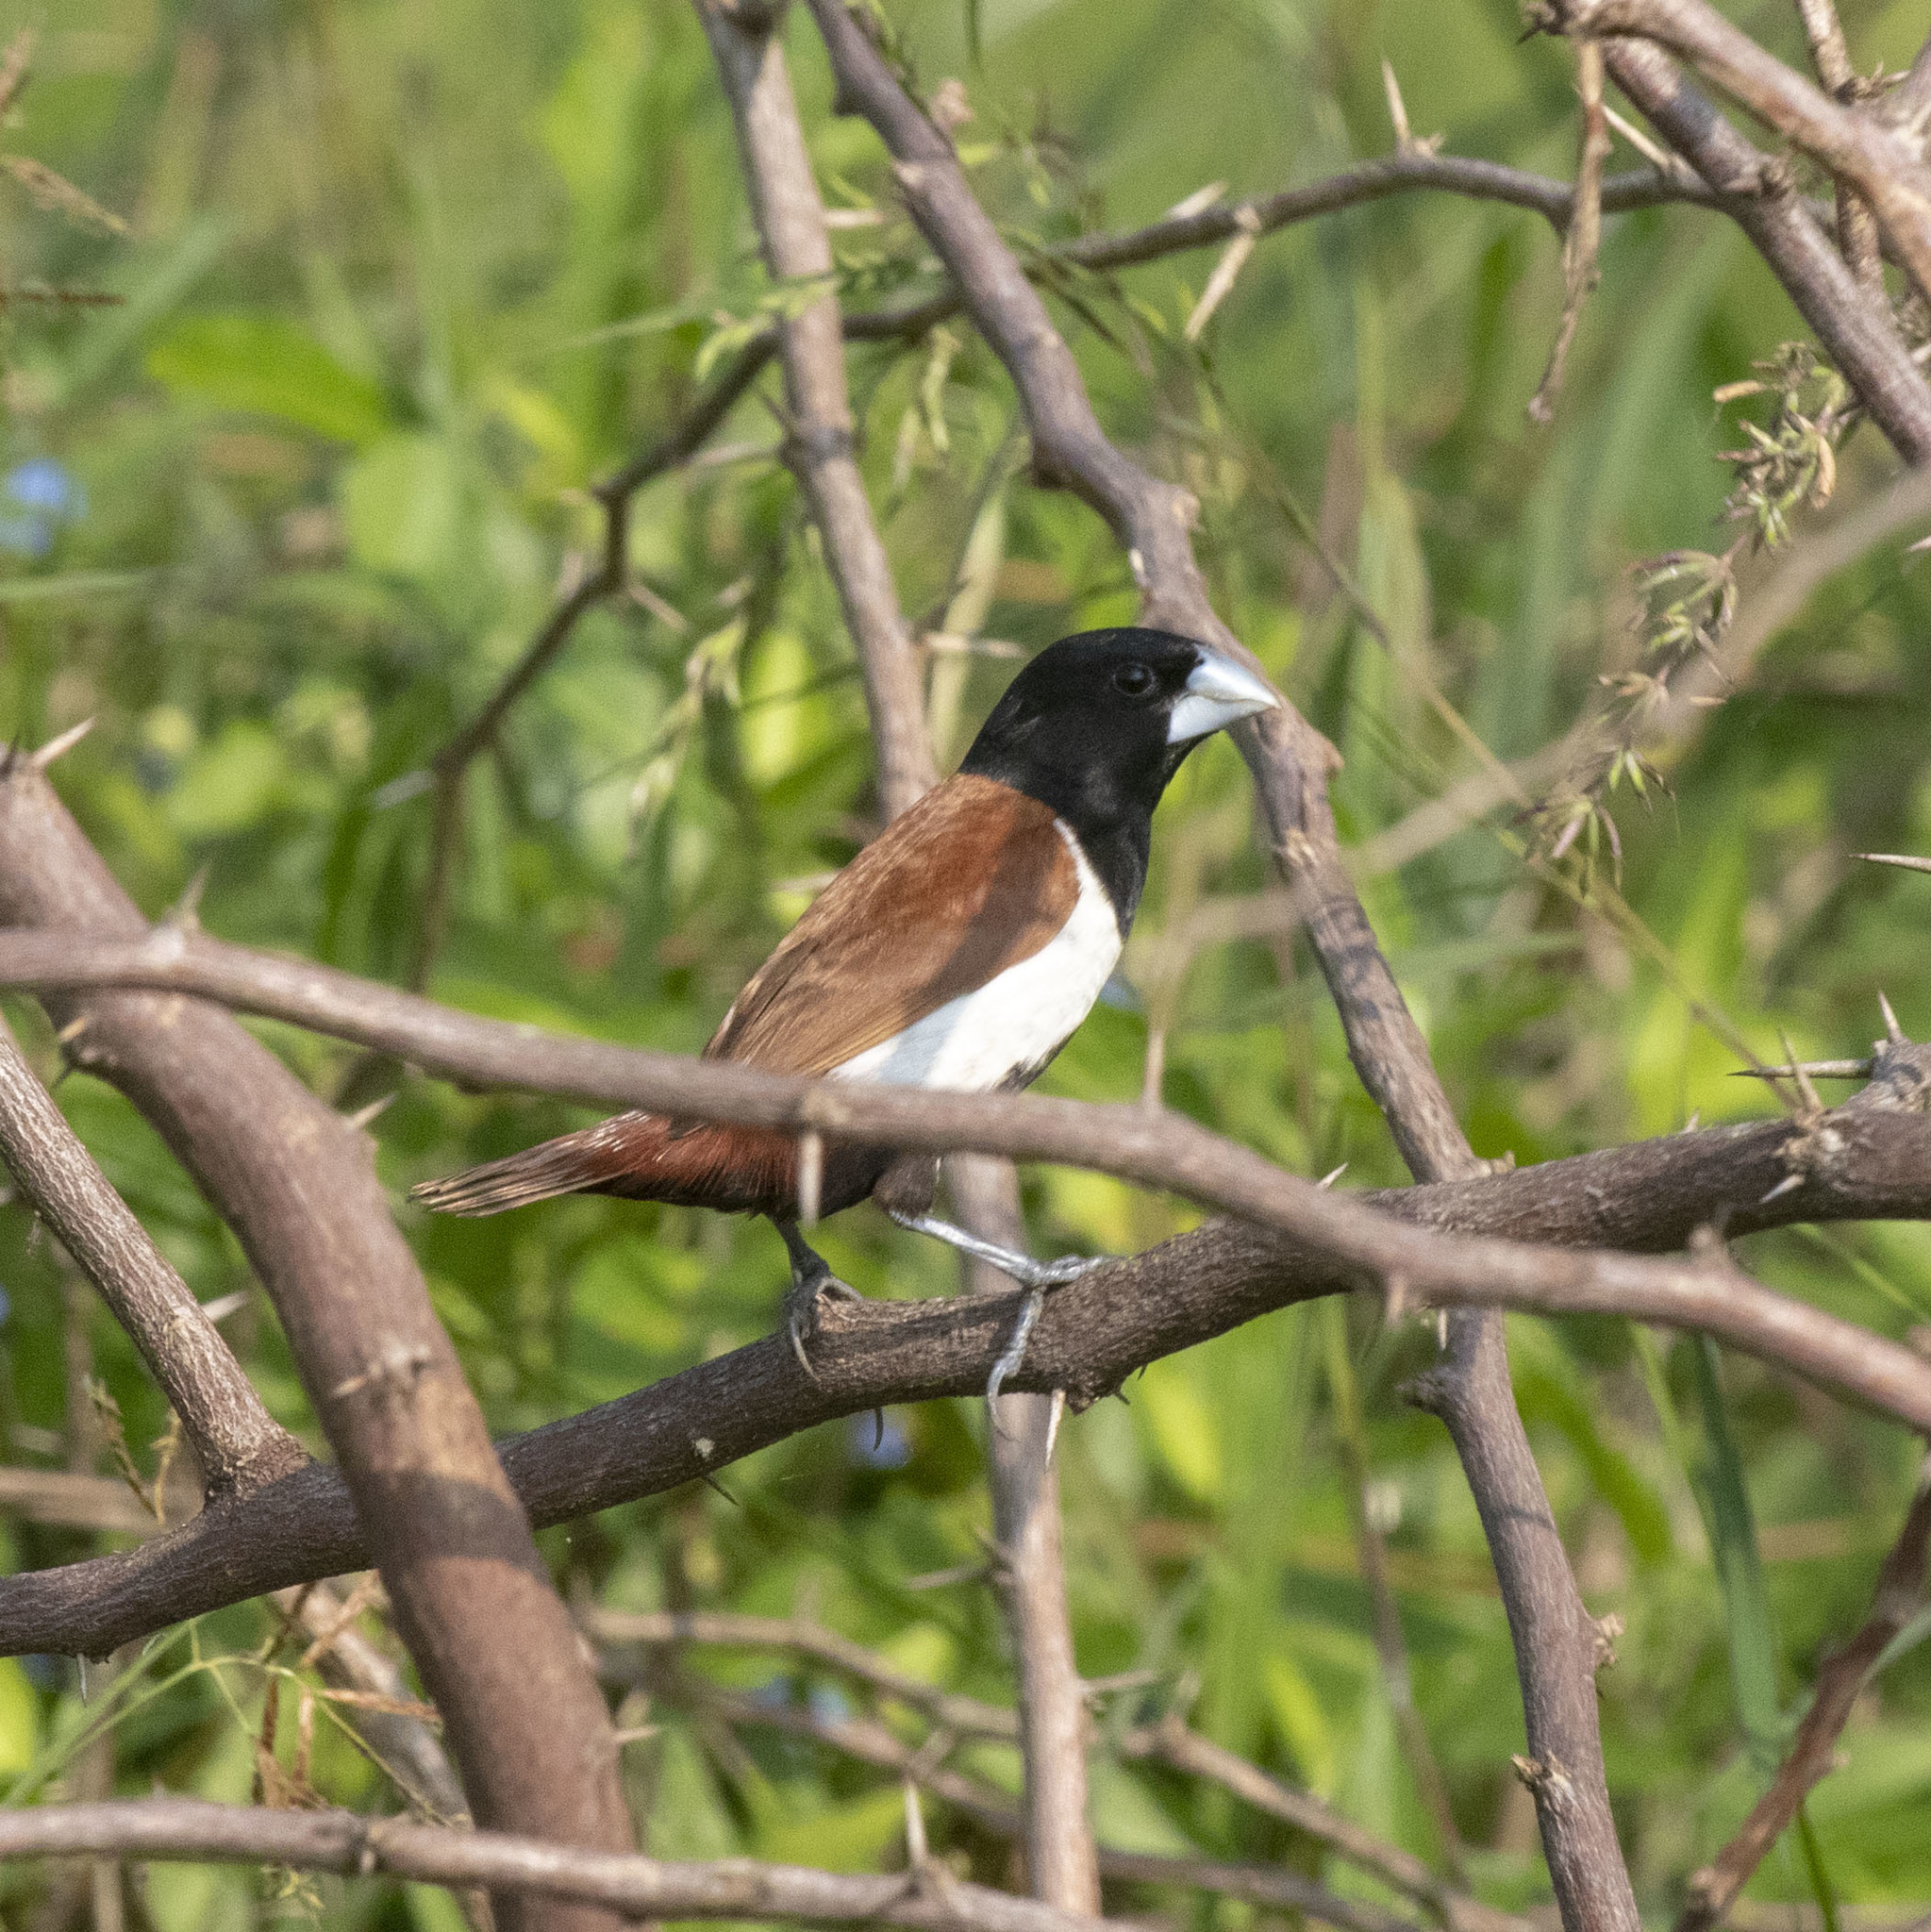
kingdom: Animalia
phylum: Chordata
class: Aves
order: Passeriformes
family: Estrildidae
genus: Lonchura
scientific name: Lonchura malacca
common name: Tricolored munia
